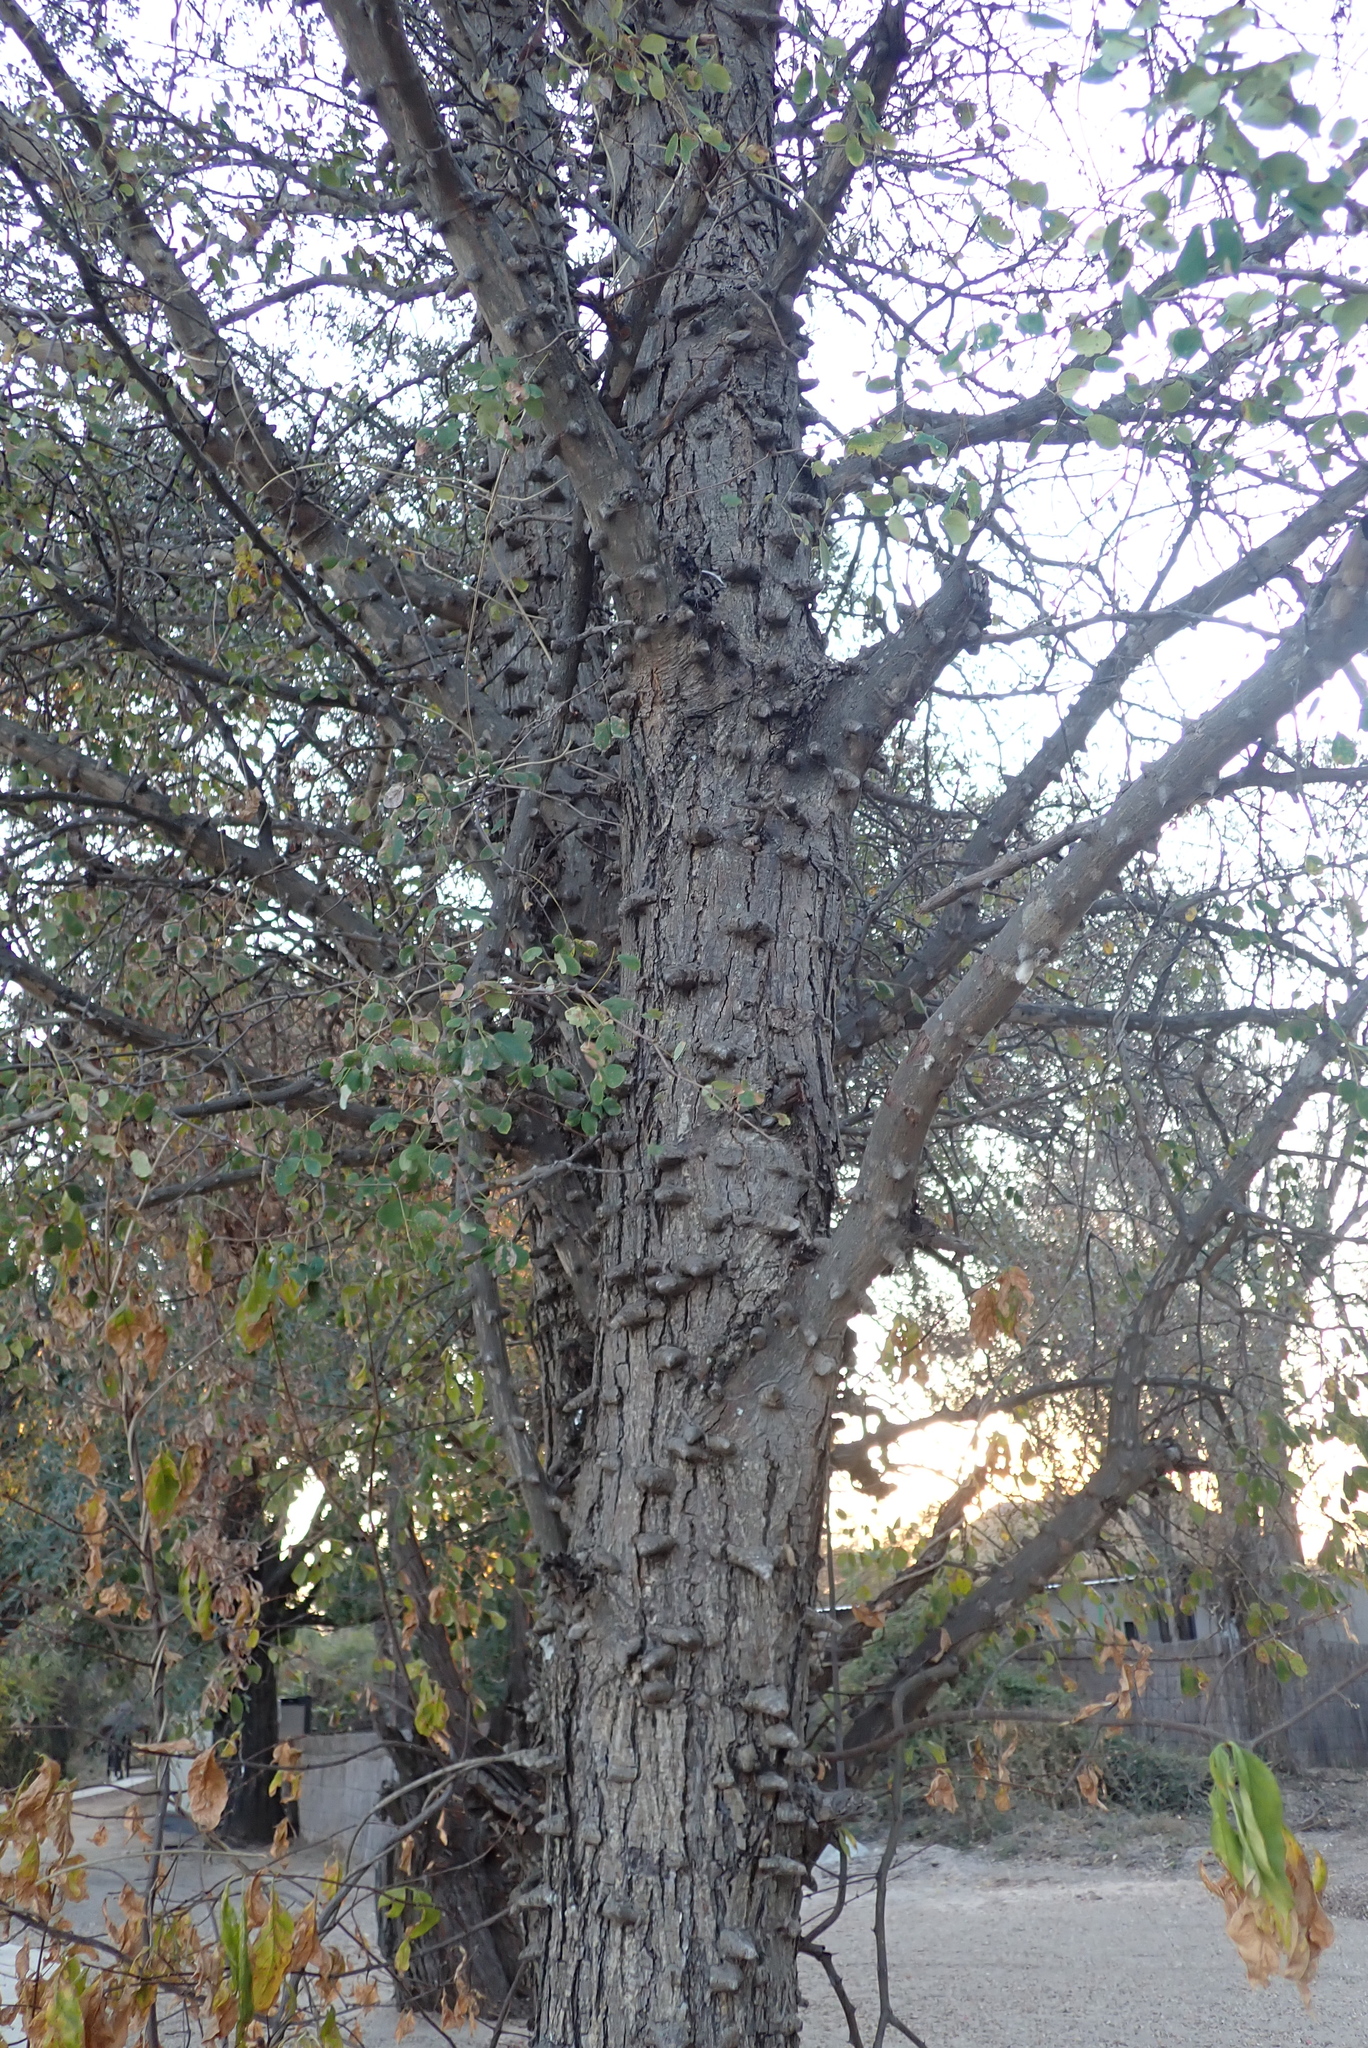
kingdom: Plantae
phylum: Tracheophyta
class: Magnoliopsida
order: Fabales
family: Fabaceae
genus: Senegalia
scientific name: Senegalia nigrescens
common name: Knobthorn
